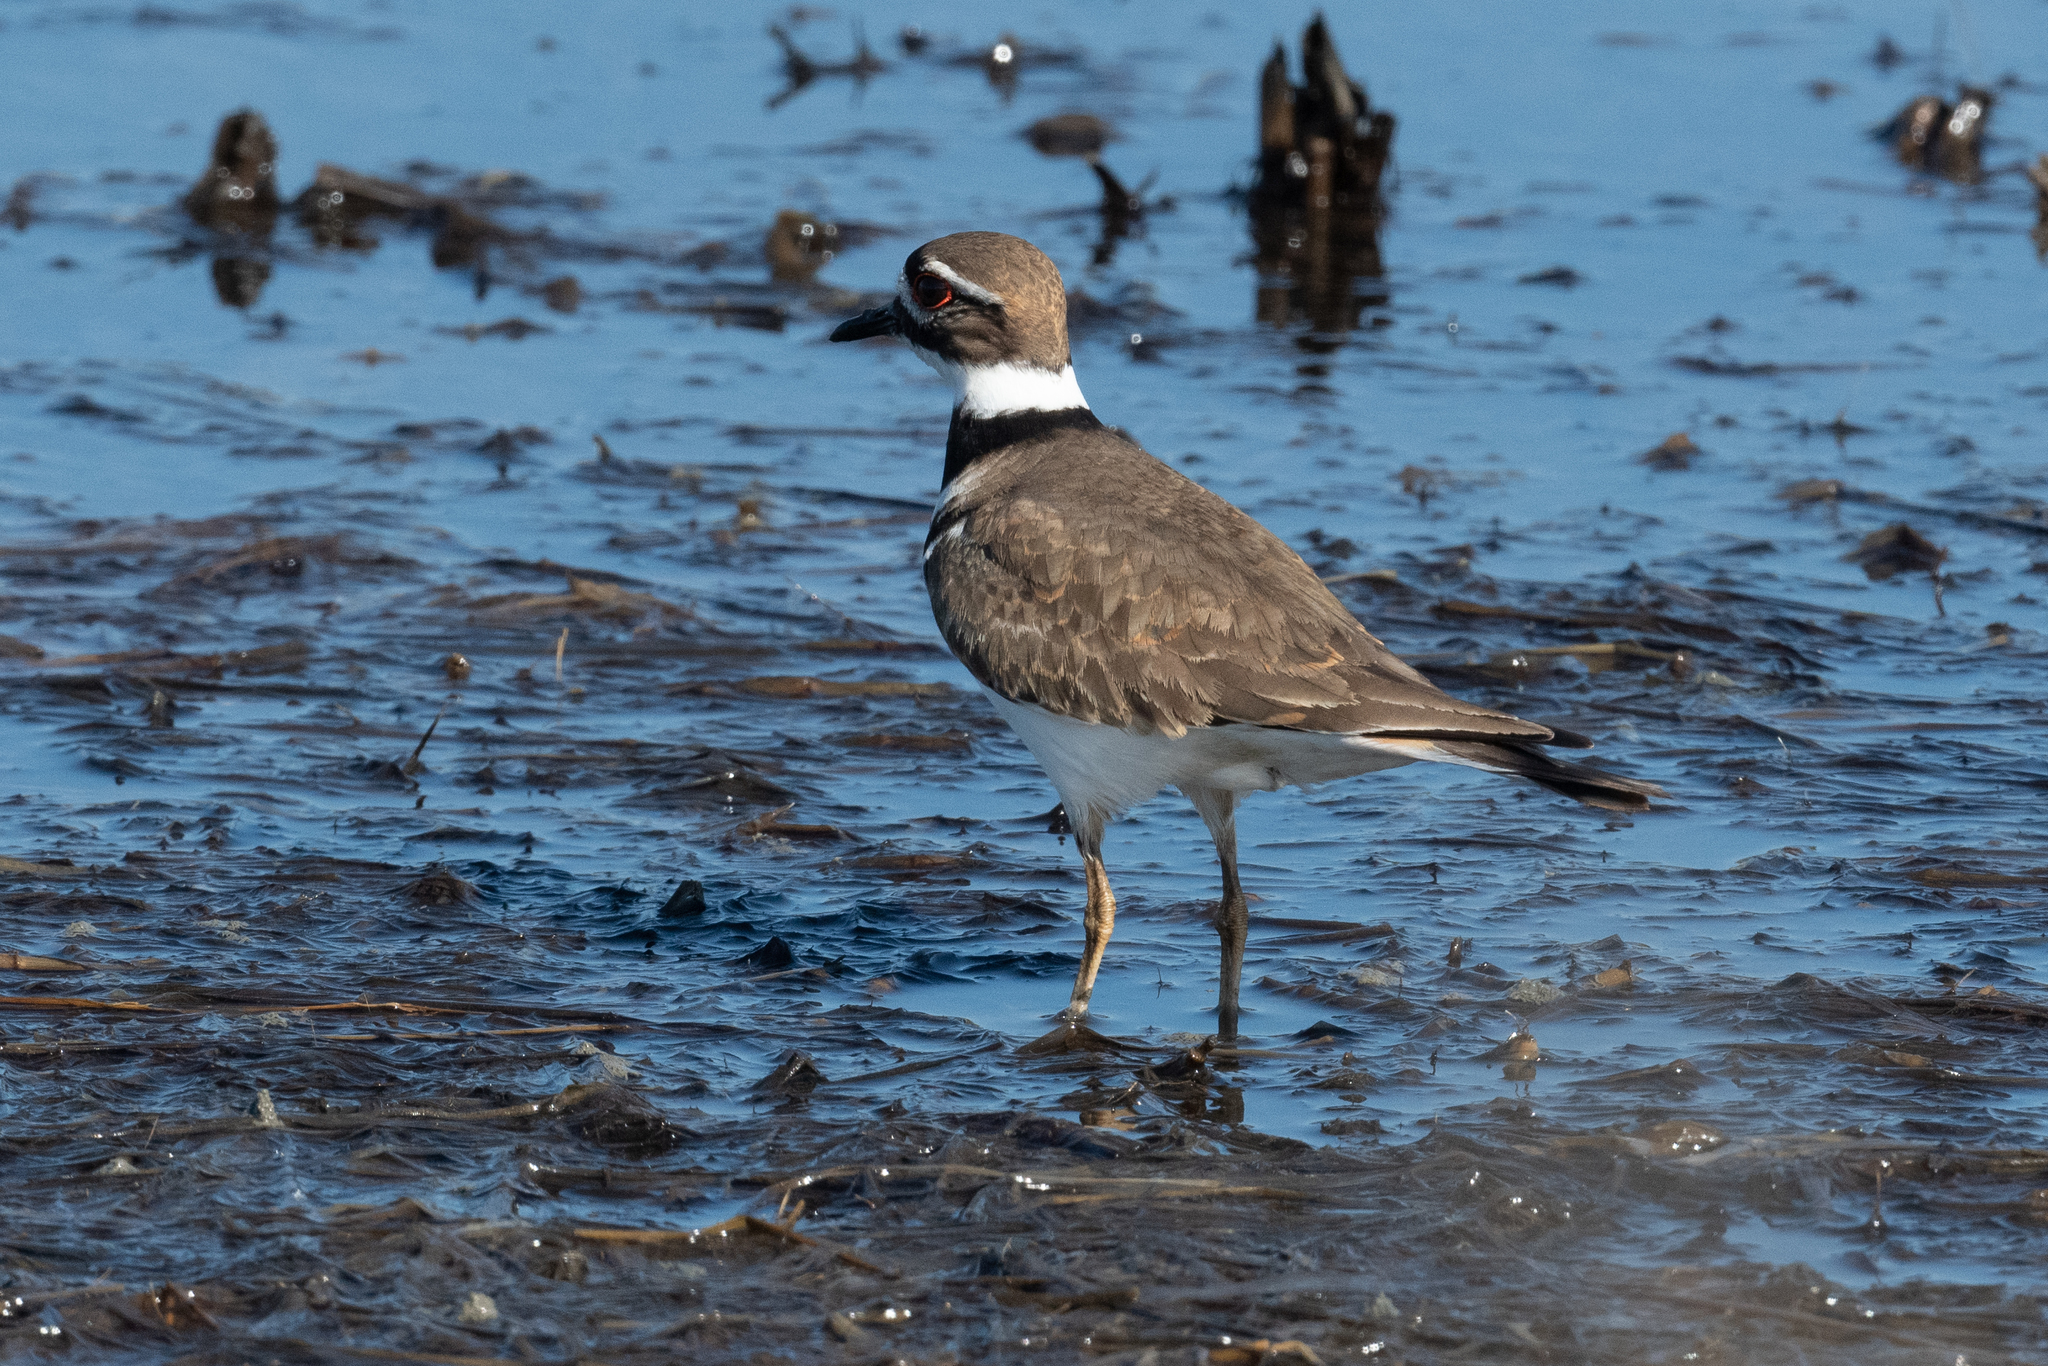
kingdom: Animalia
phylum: Chordata
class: Aves
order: Charadriiformes
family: Charadriidae
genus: Charadrius
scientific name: Charadrius vociferus
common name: Killdeer
